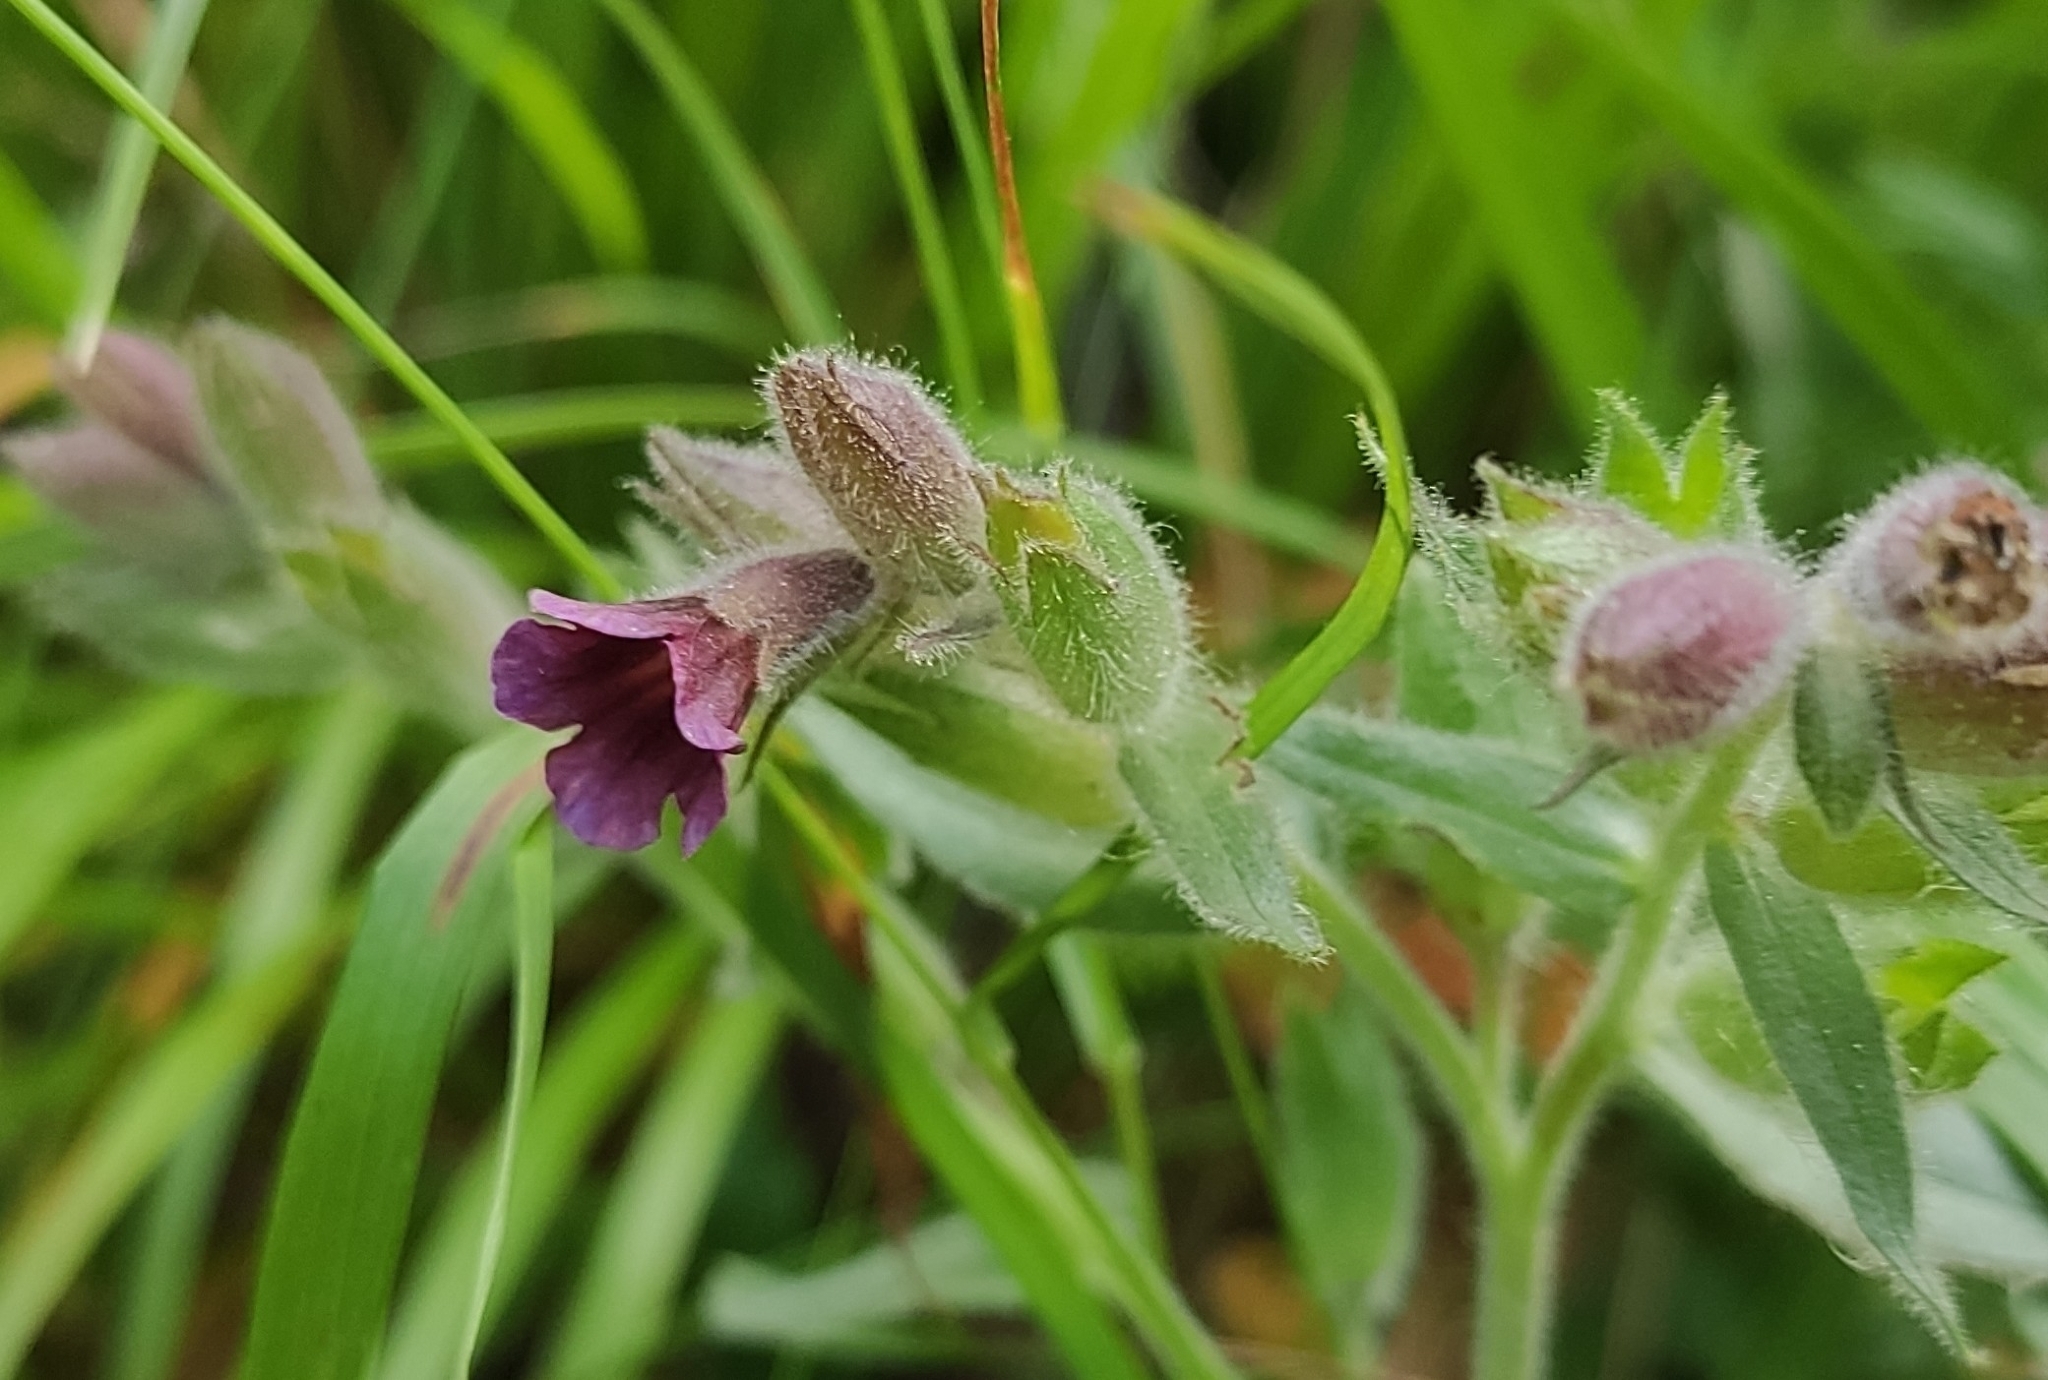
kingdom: Plantae
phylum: Tracheophyta
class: Magnoliopsida
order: Boraginales
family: Boraginaceae
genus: Nonea
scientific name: Nonea pulla
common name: Brown nonea
